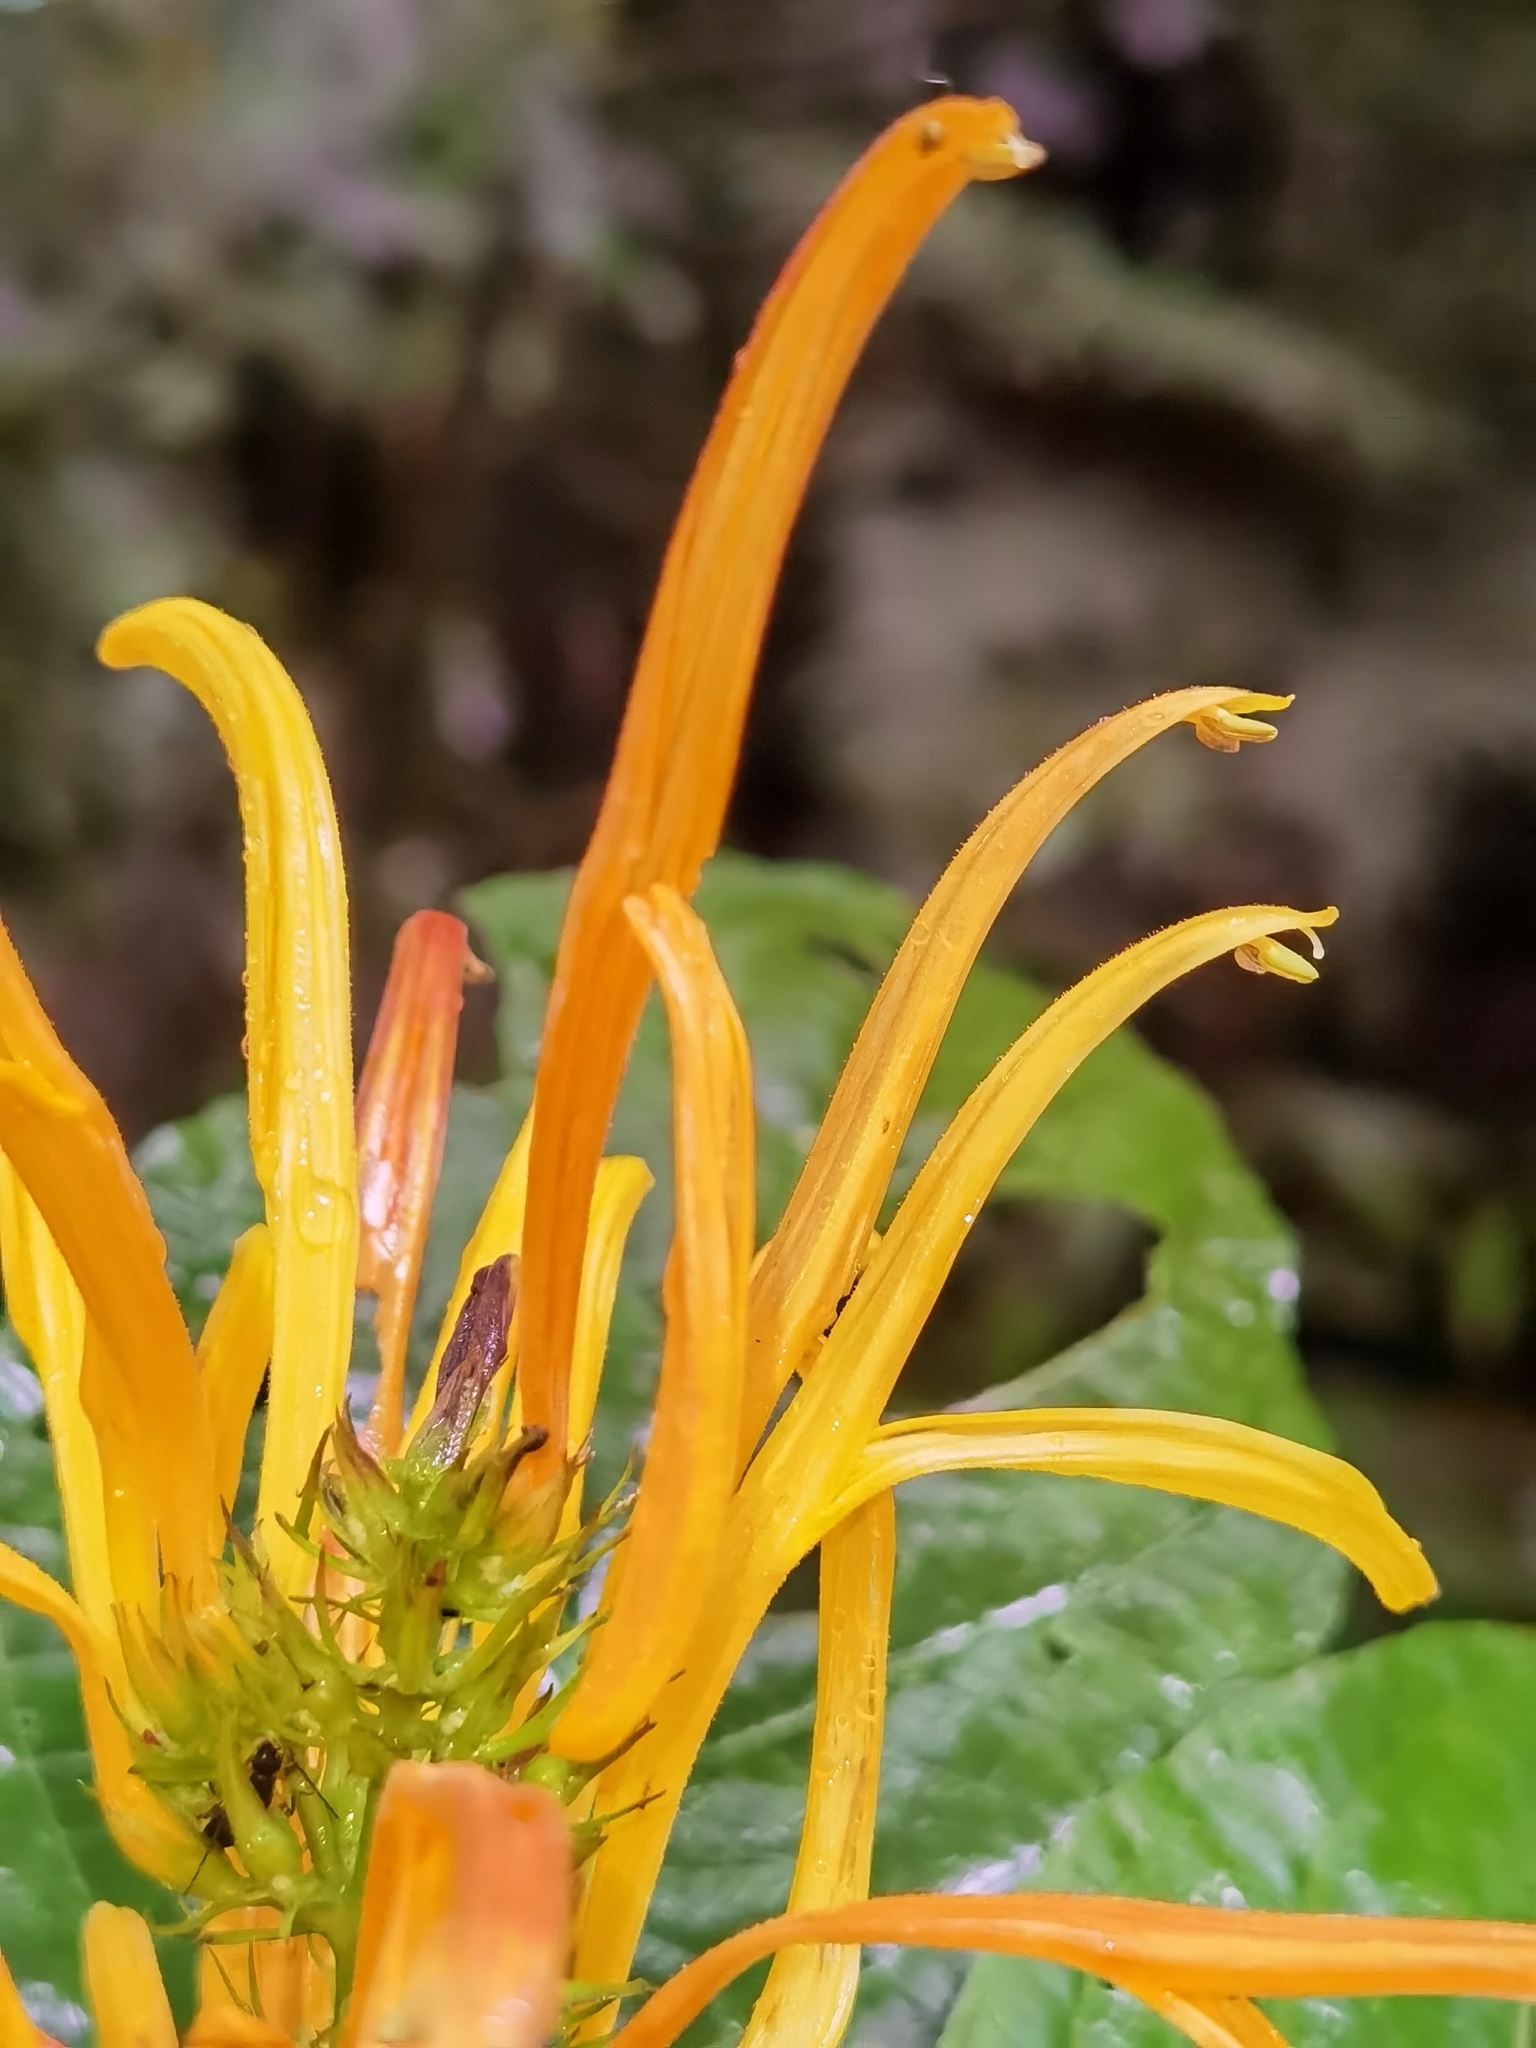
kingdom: Plantae
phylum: Tracheophyta
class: Magnoliopsida
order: Lamiales
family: Acanthaceae
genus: Justicia
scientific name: Justicia aurea
